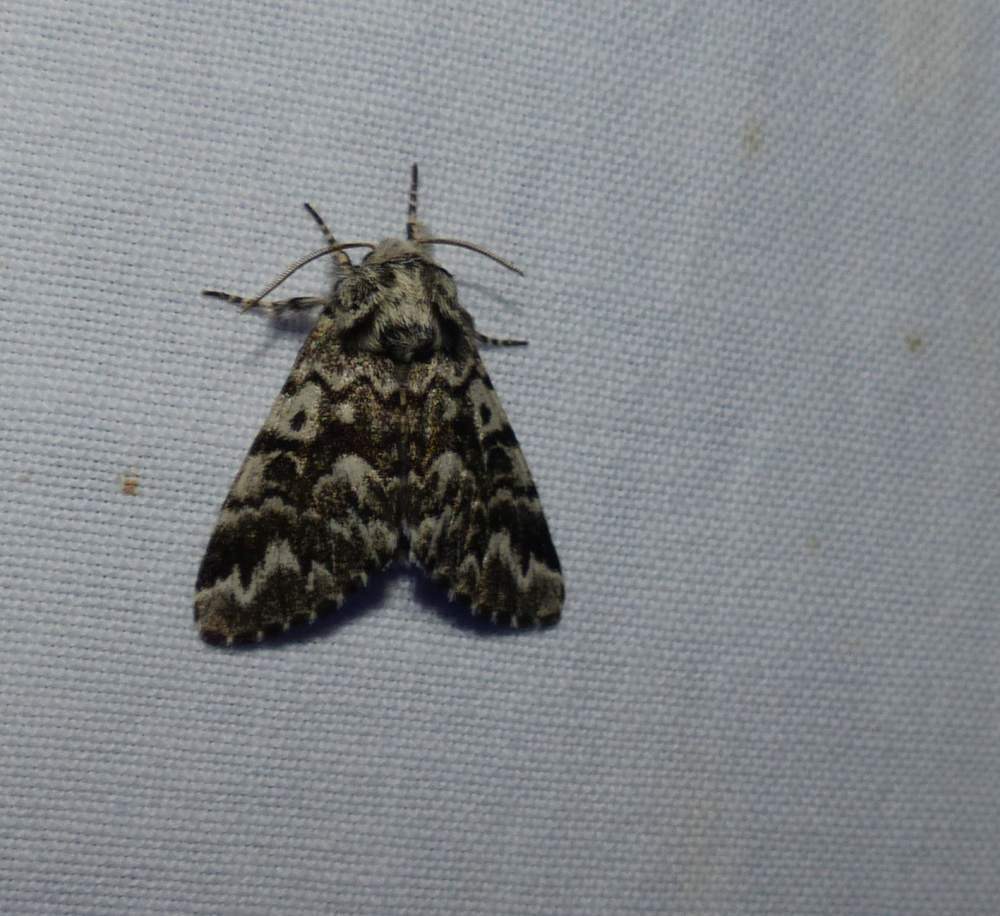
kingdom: Animalia
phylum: Arthropoda
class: Insecta
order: Lepidoptera
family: Noctuidae
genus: Panthea
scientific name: Panthea acronyctoides
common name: Black zigzag moth
